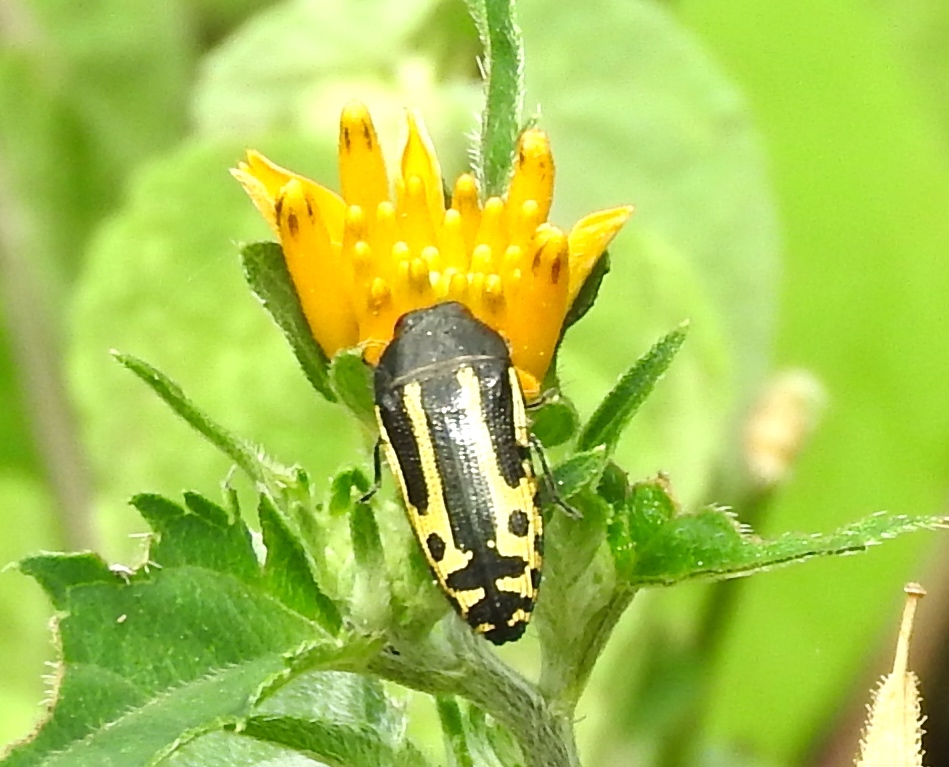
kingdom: Animalia
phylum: Arthropoda
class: Insecta
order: Coleoptera
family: Buprestidae
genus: Acmaeodera
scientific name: Acmaeodera scalaris
